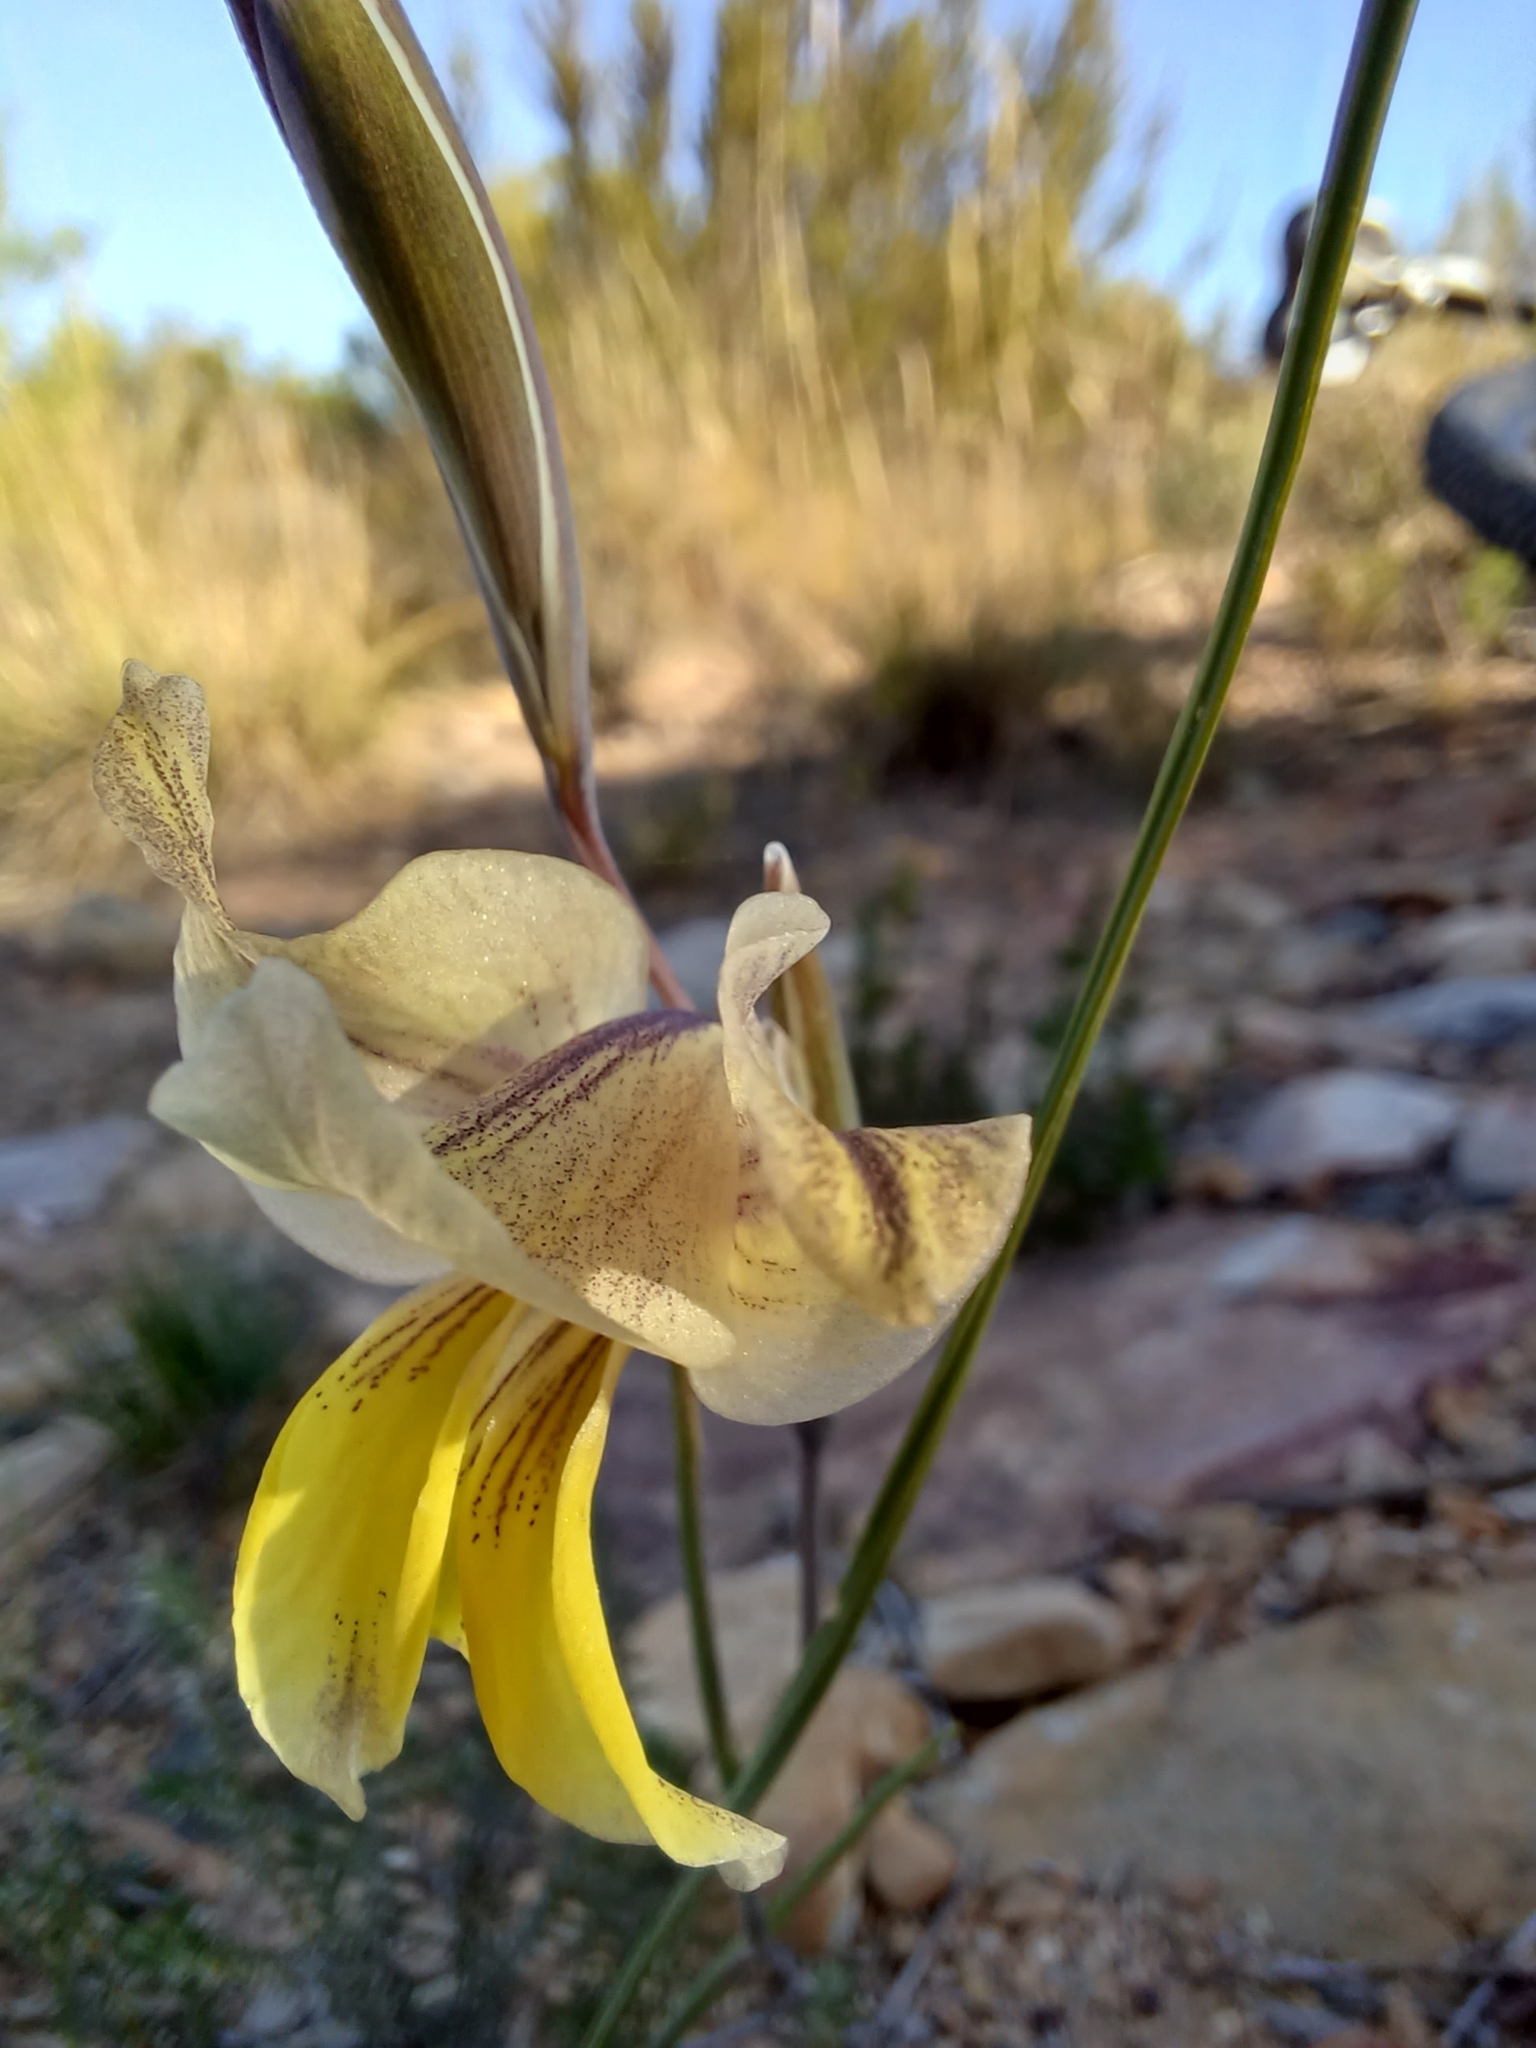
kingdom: Plantae
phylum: Tracheophyta
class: Liliopsida
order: Asparagales
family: Iridaceae
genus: Gladiolus
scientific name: Gladiolus carinatus
